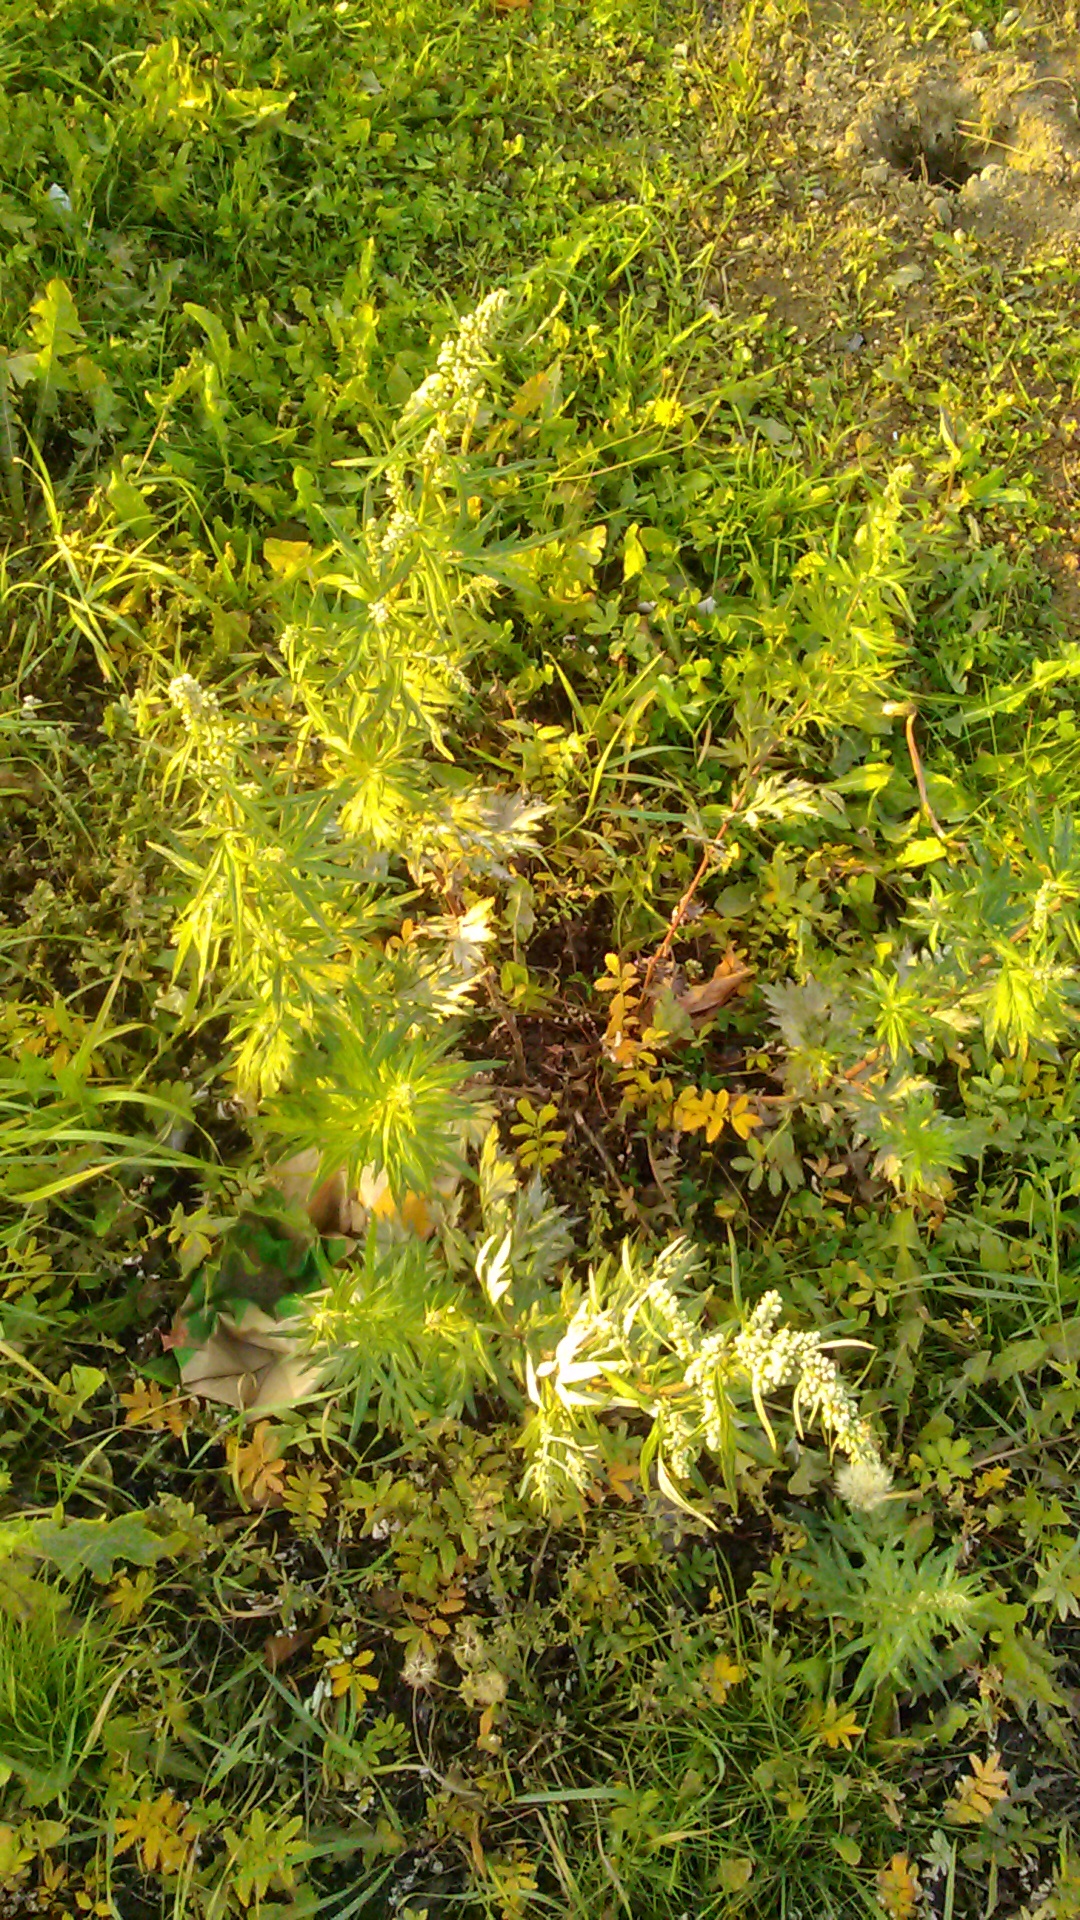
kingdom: Plantae
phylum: Tracheophyta
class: Magnoliopsida
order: Asterales
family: Asteraceae
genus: Artemisia
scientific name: Artemisia vulgaris
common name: Mugwort
